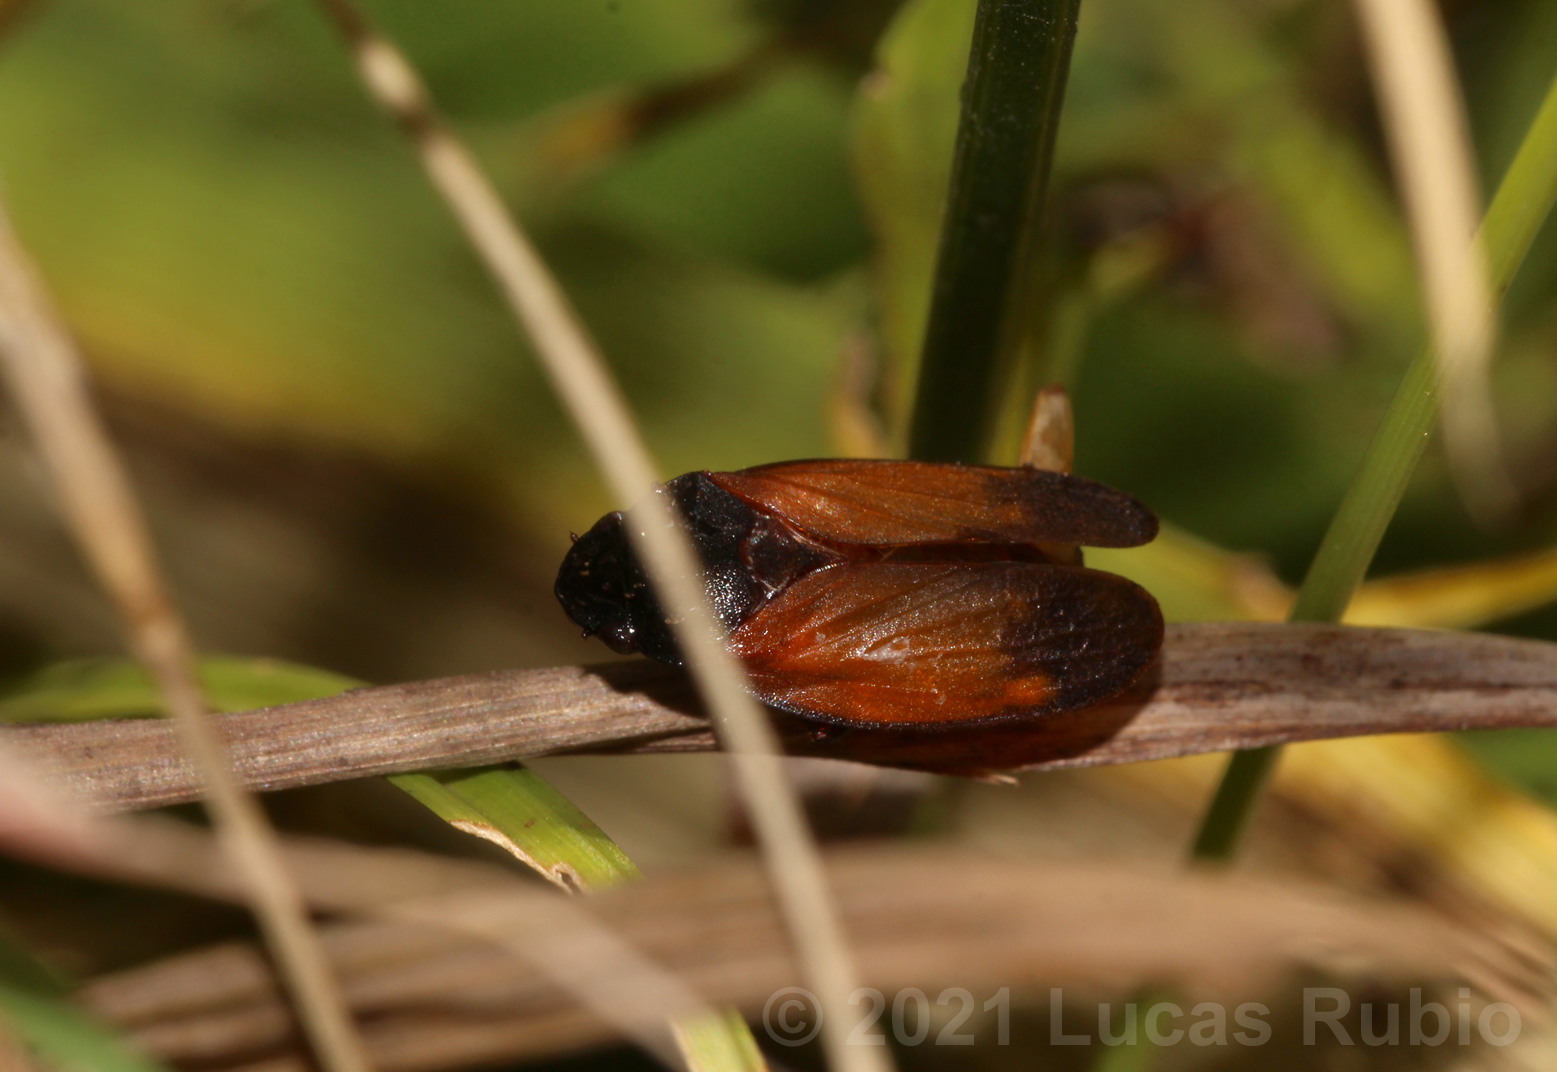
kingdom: Animalia
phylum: Arthropoda
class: Insecta
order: Hemiptera
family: Cercopidae
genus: Kanaima
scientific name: Kanaima fluvialis
